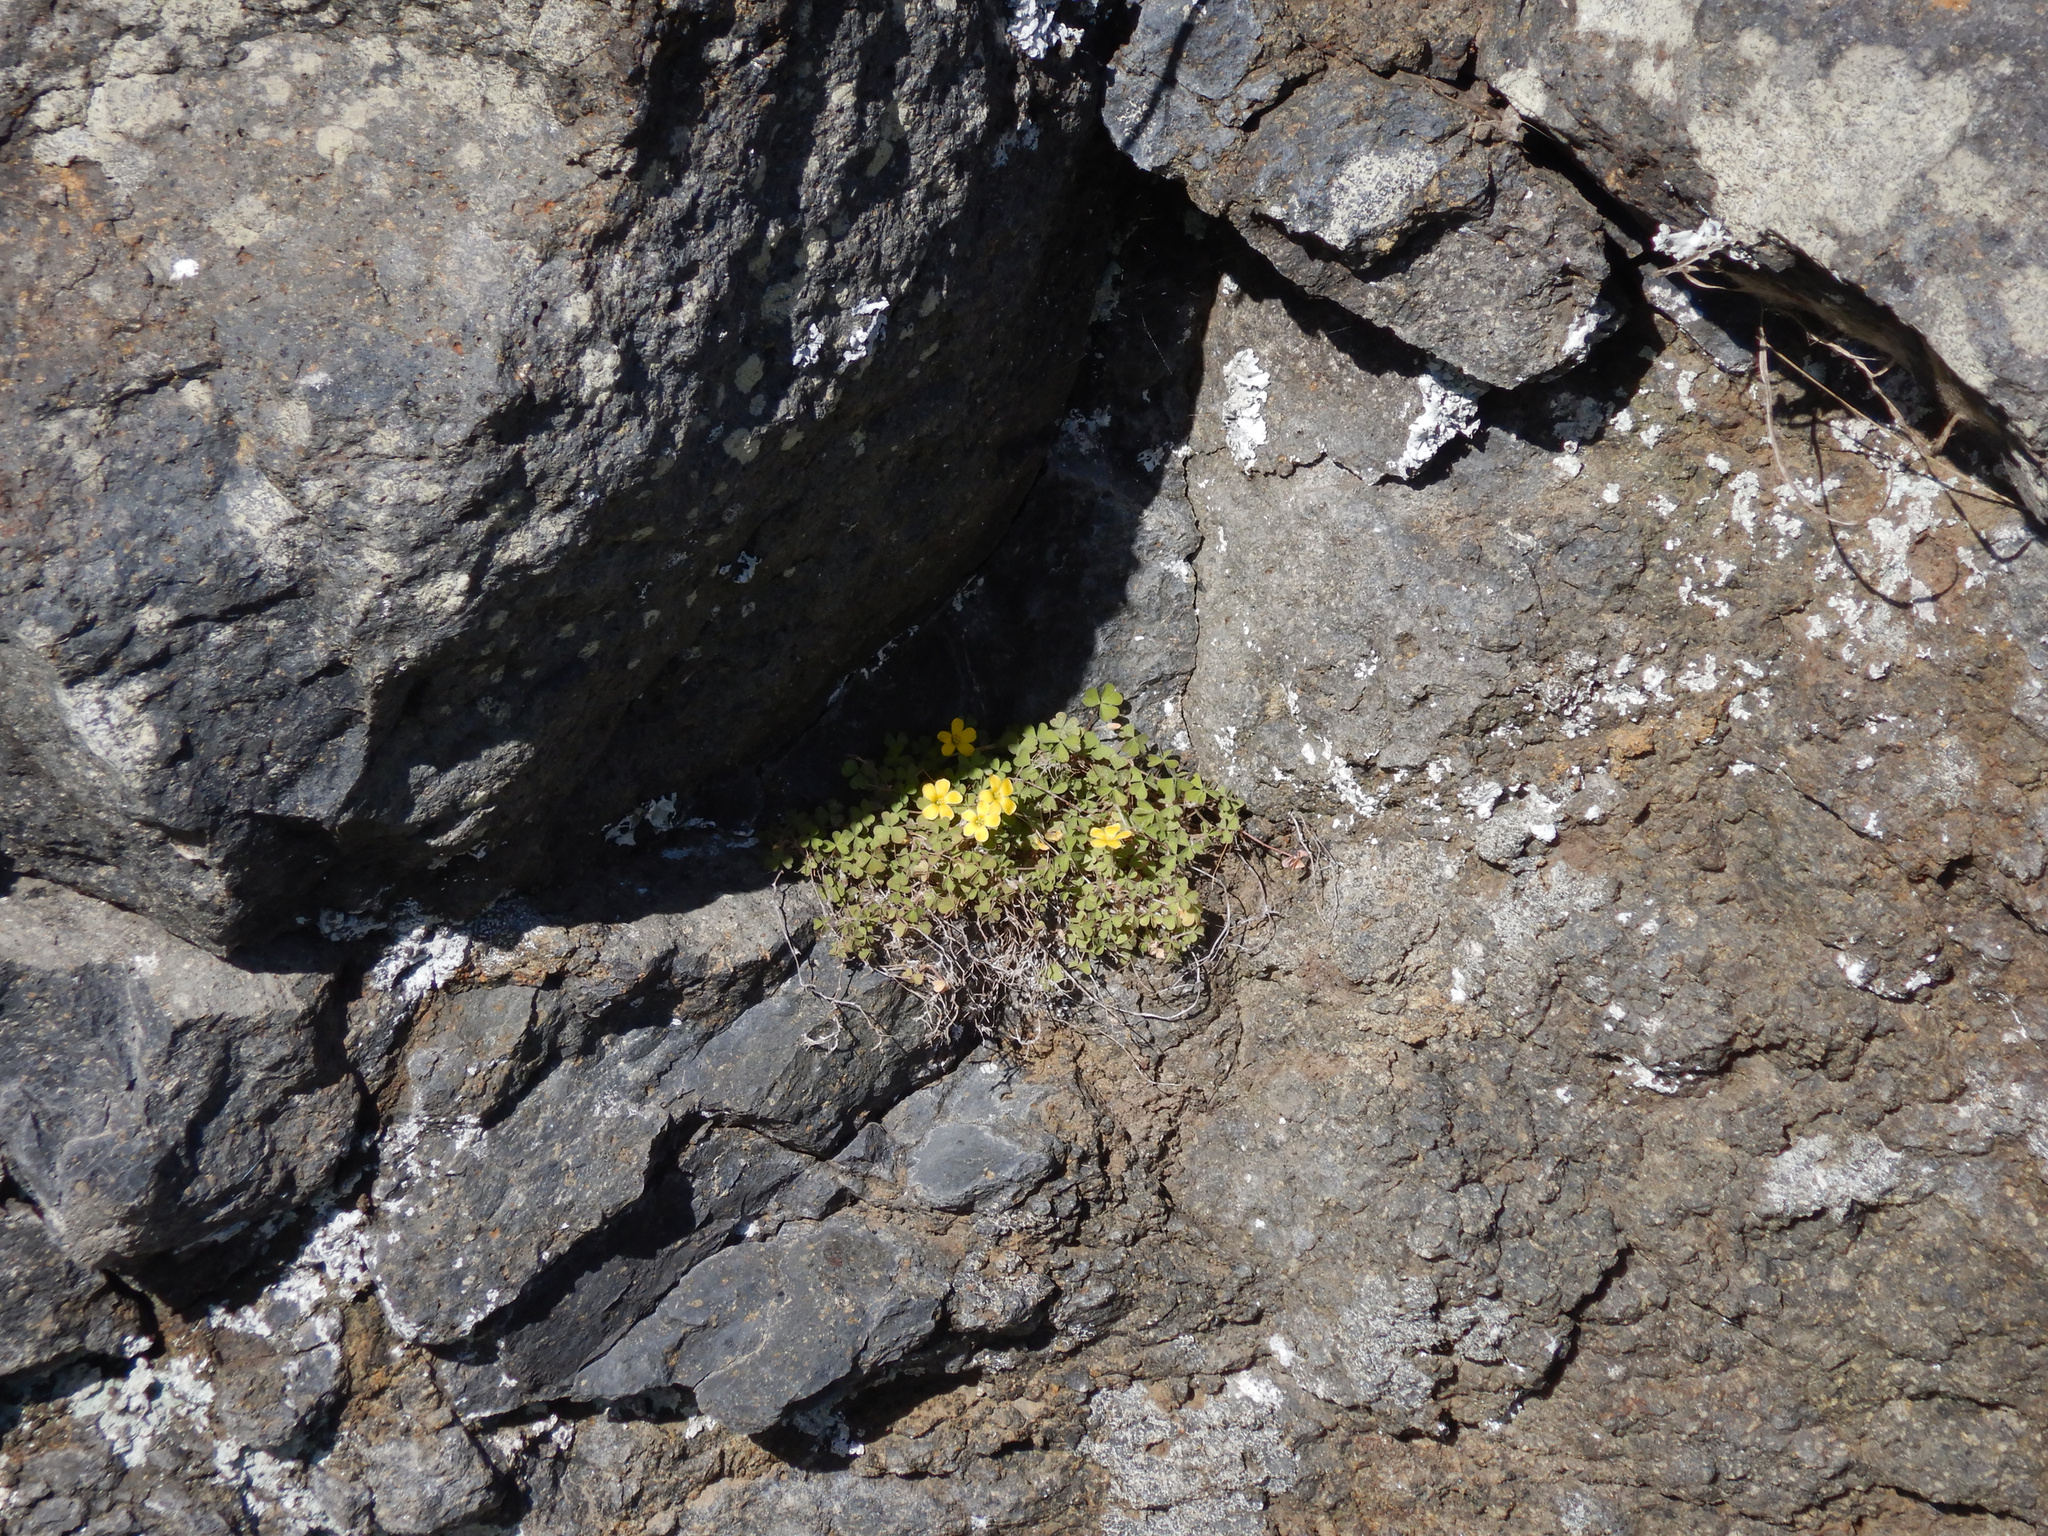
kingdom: Plantae
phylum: Tracheophyta
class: Magnoliopsida
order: Oxalidales
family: Oxalidaceae
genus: Oxalis
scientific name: Oxalis exilis
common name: Least yellow-sorrel
